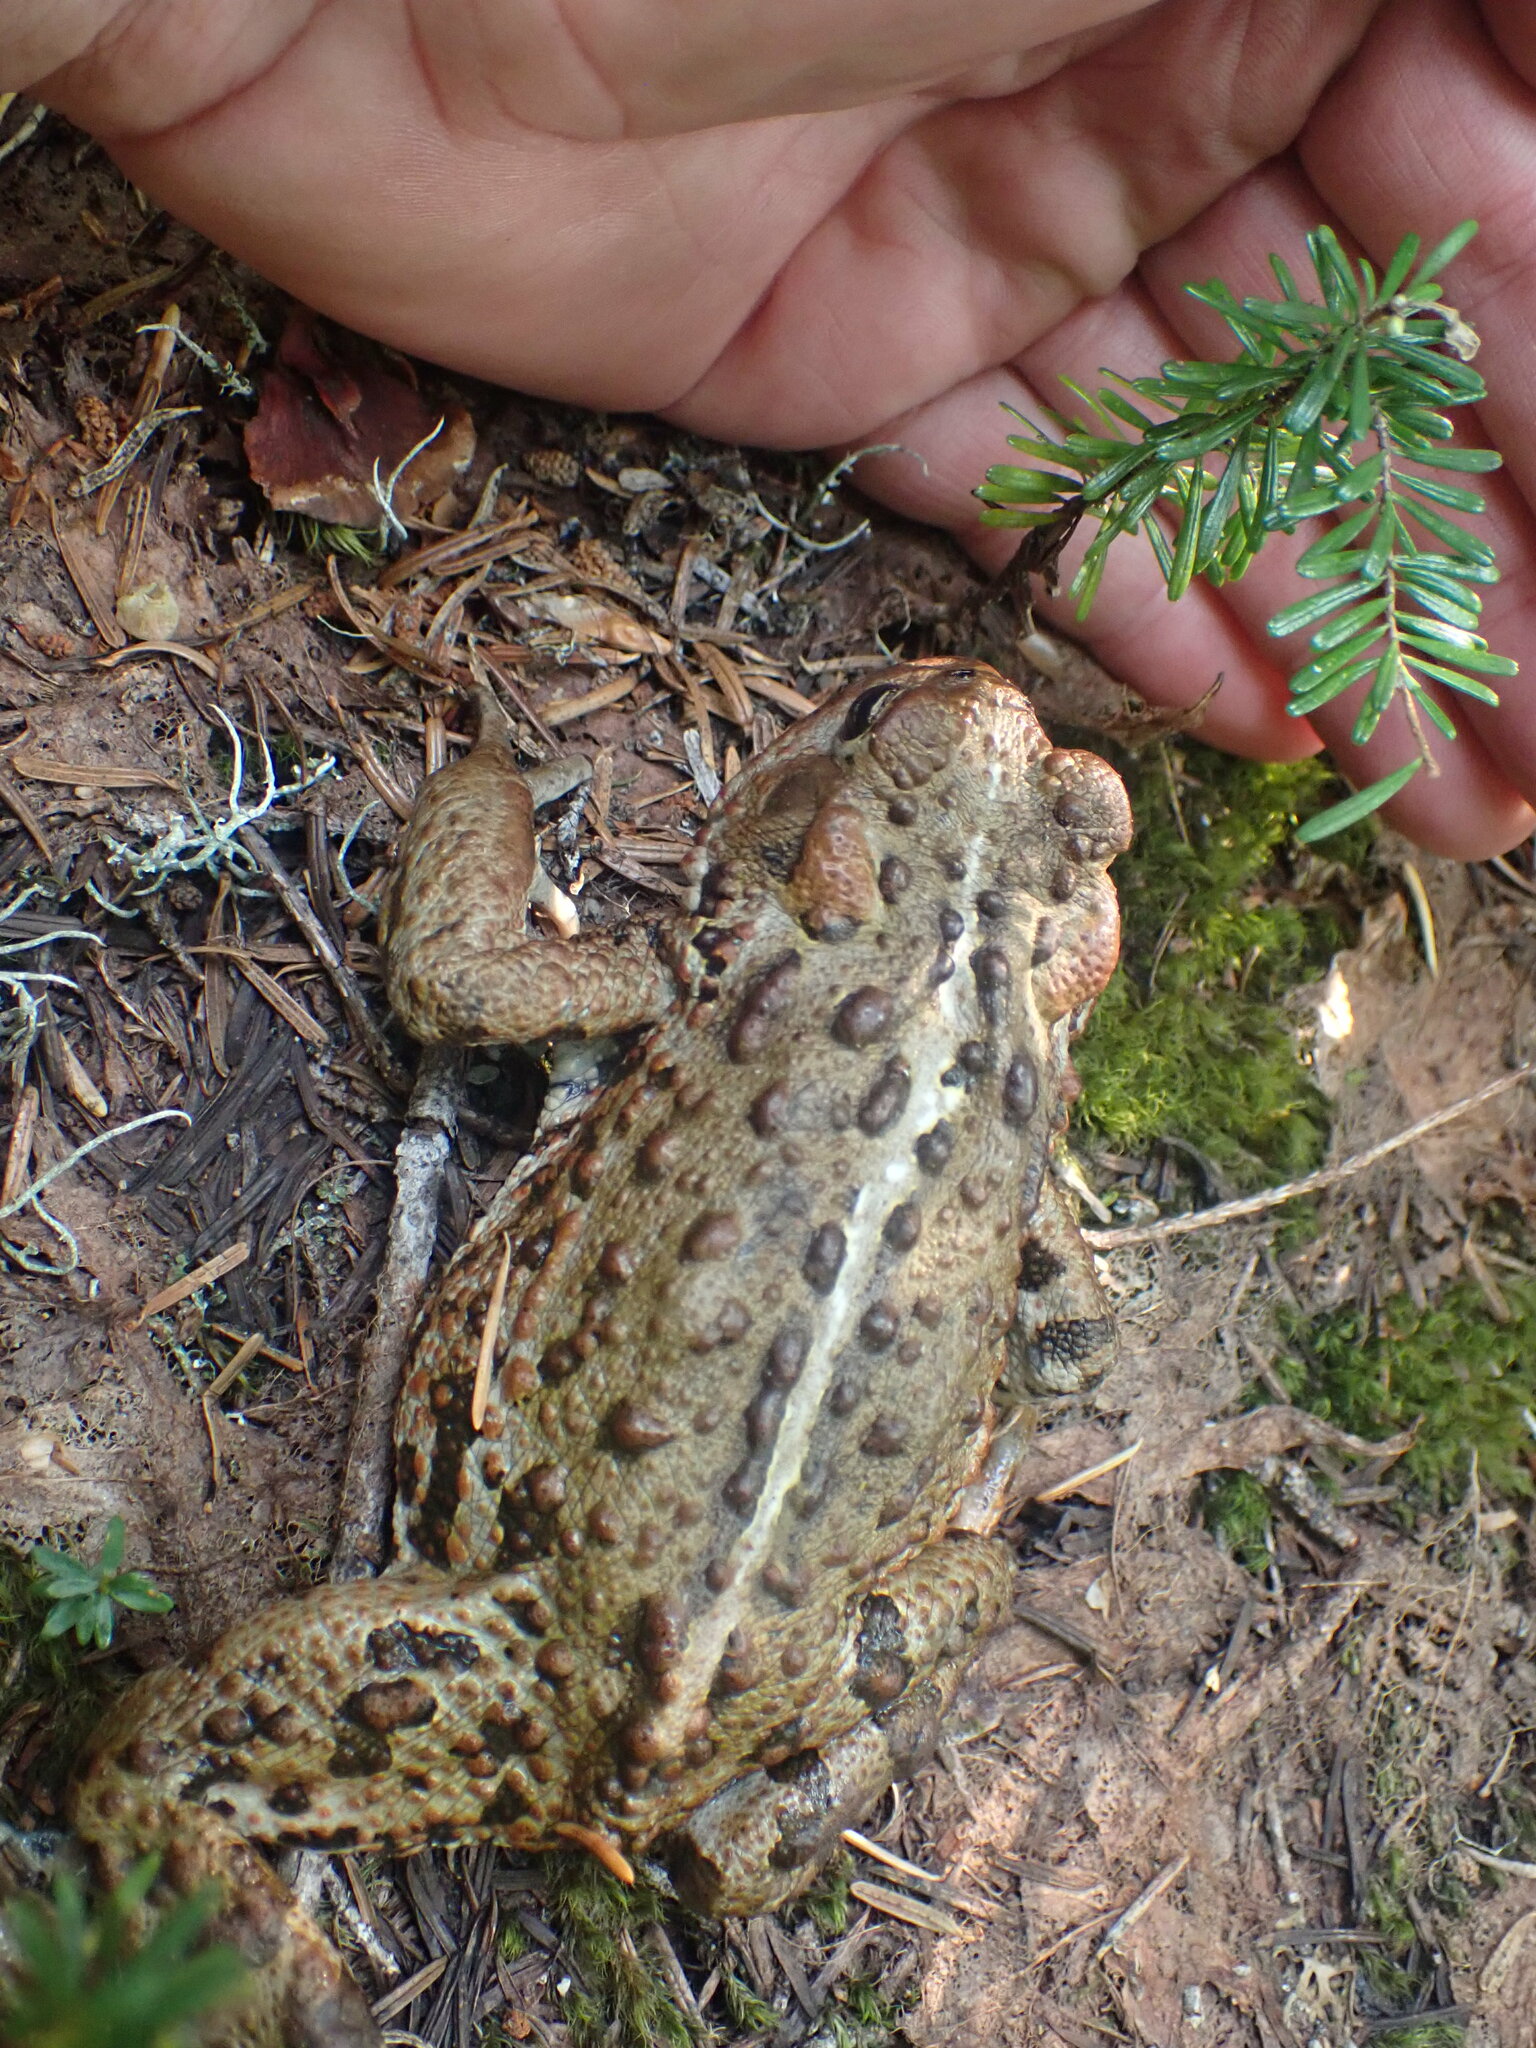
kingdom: Animalia
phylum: Chordata
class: Amphibia
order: Anura
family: Bufonidae
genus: Anaxyrus
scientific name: Anaxyrus boreas
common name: Western toad
